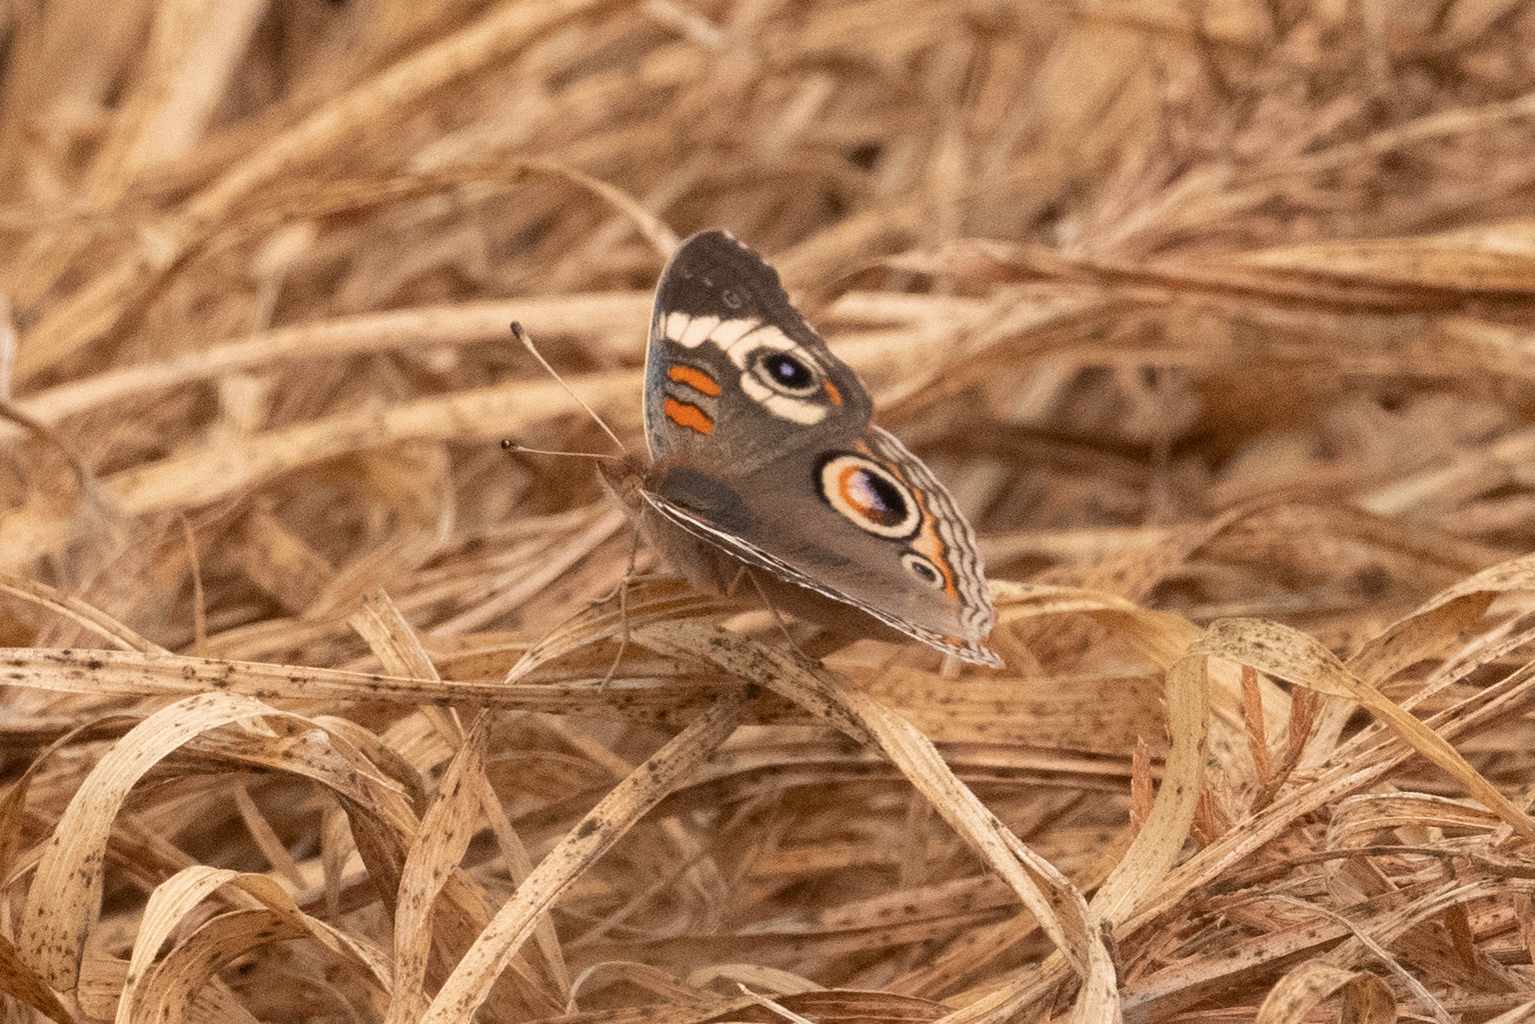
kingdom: Animalia
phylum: Arthropoda
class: Insecta
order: Lepidoptera
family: Nymphalidae
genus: Junonia
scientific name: Junonia grisea
